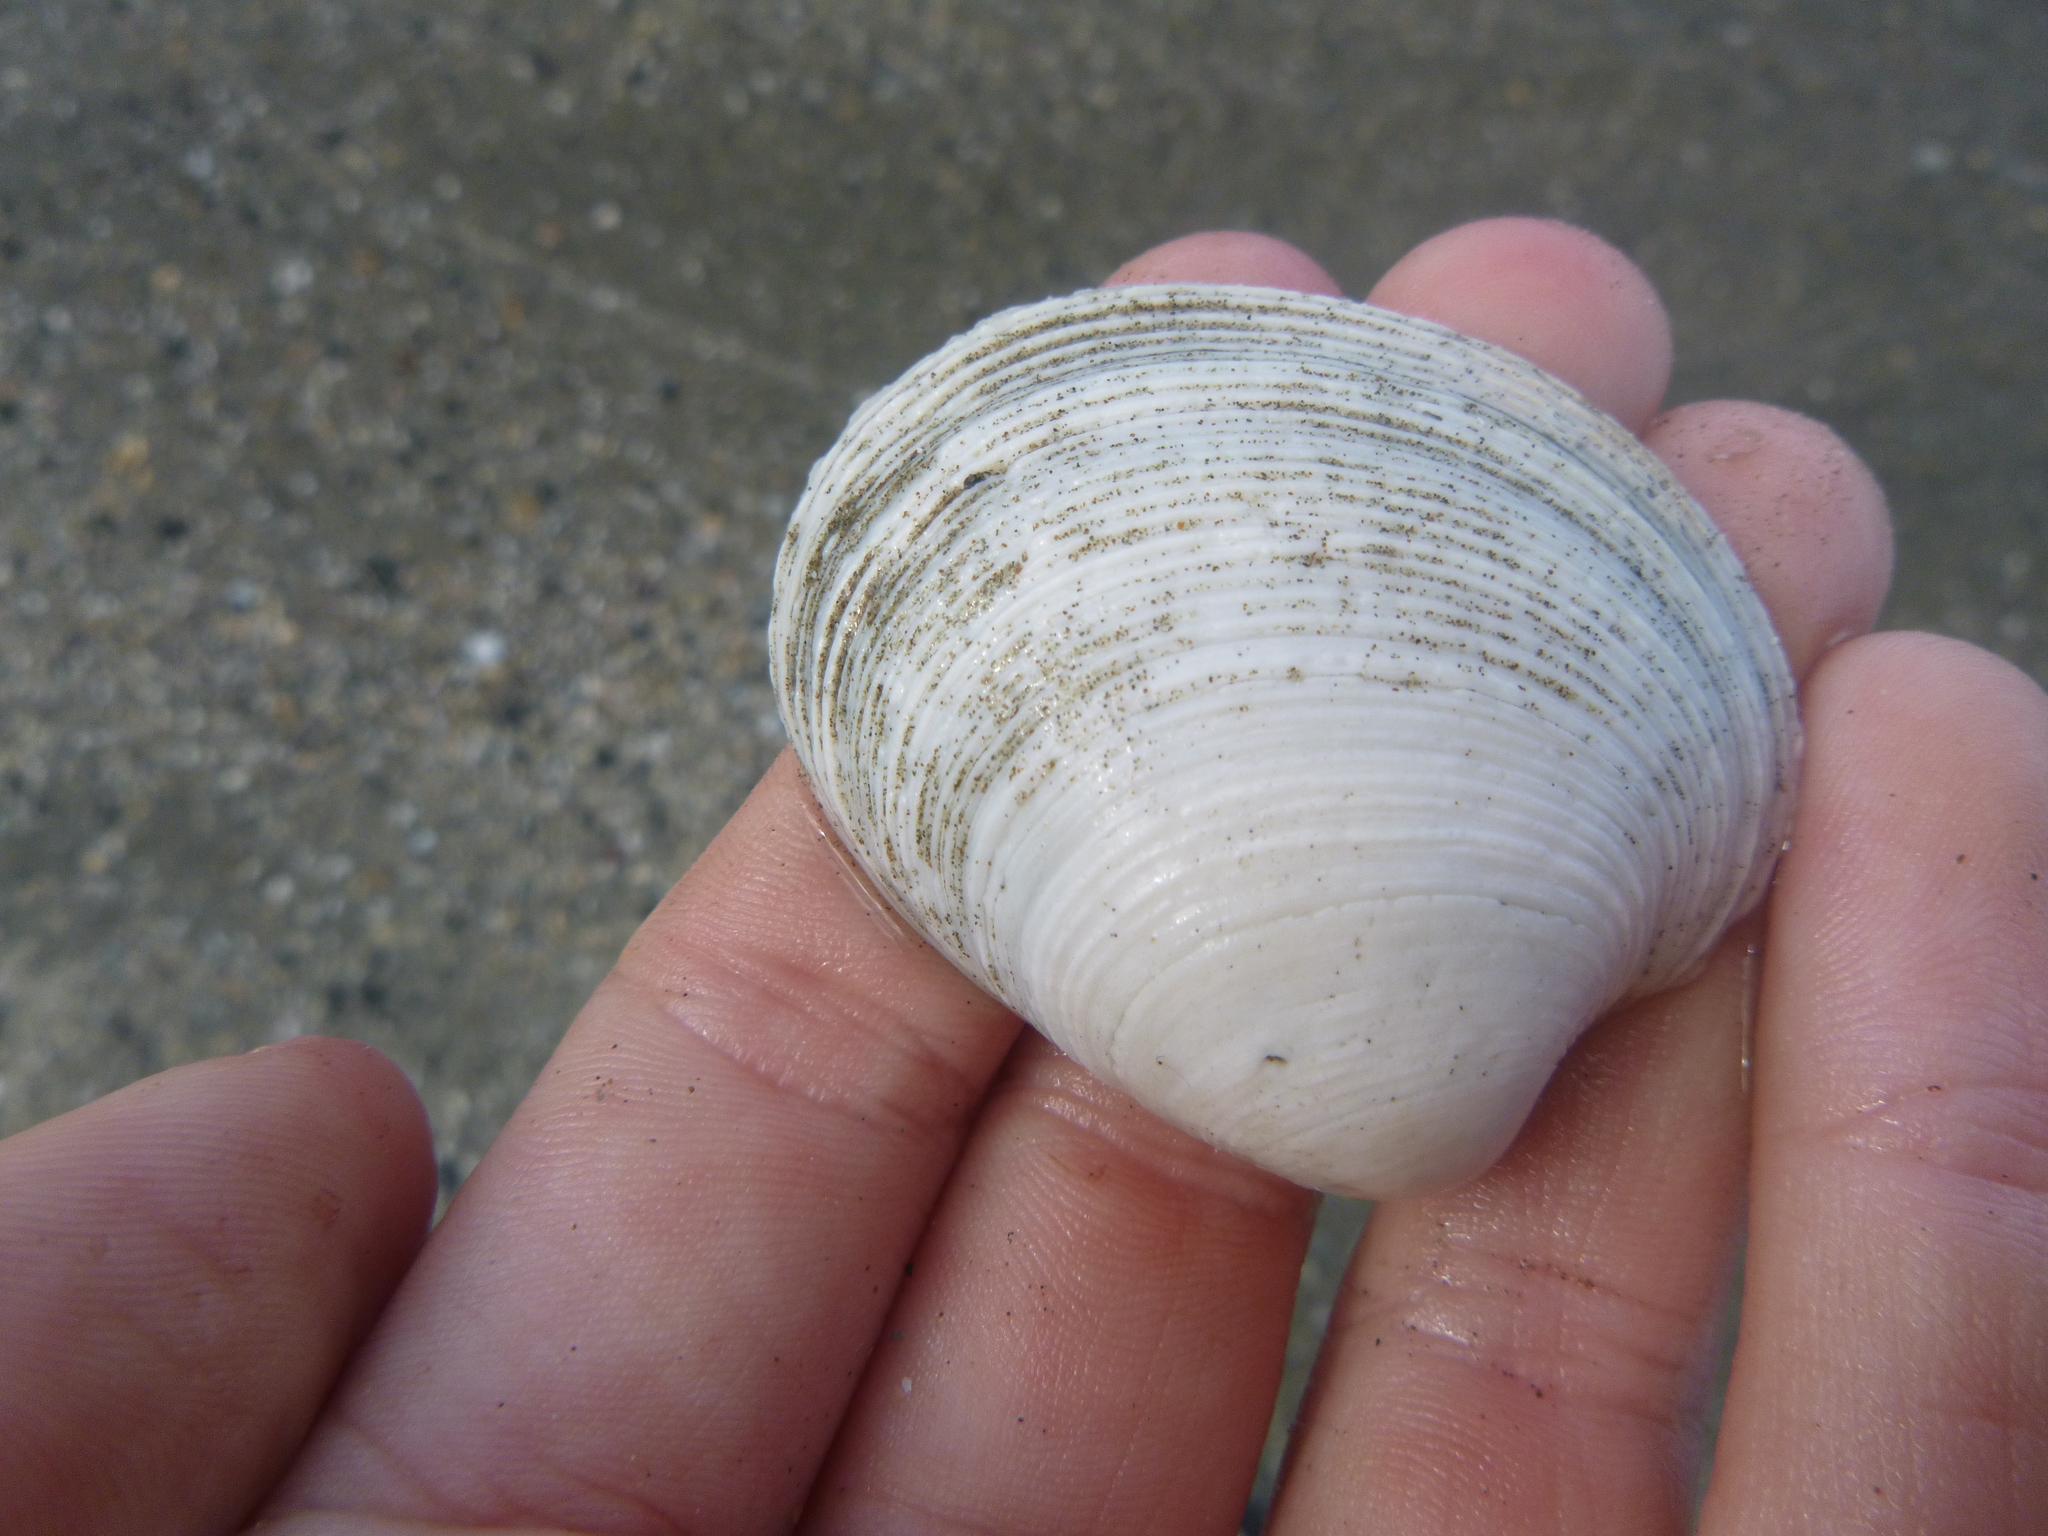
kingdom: Animalia
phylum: Mollusca
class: Bivalvia
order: Venerida
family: Veneridae
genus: Dosina
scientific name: Dosina mactracea
